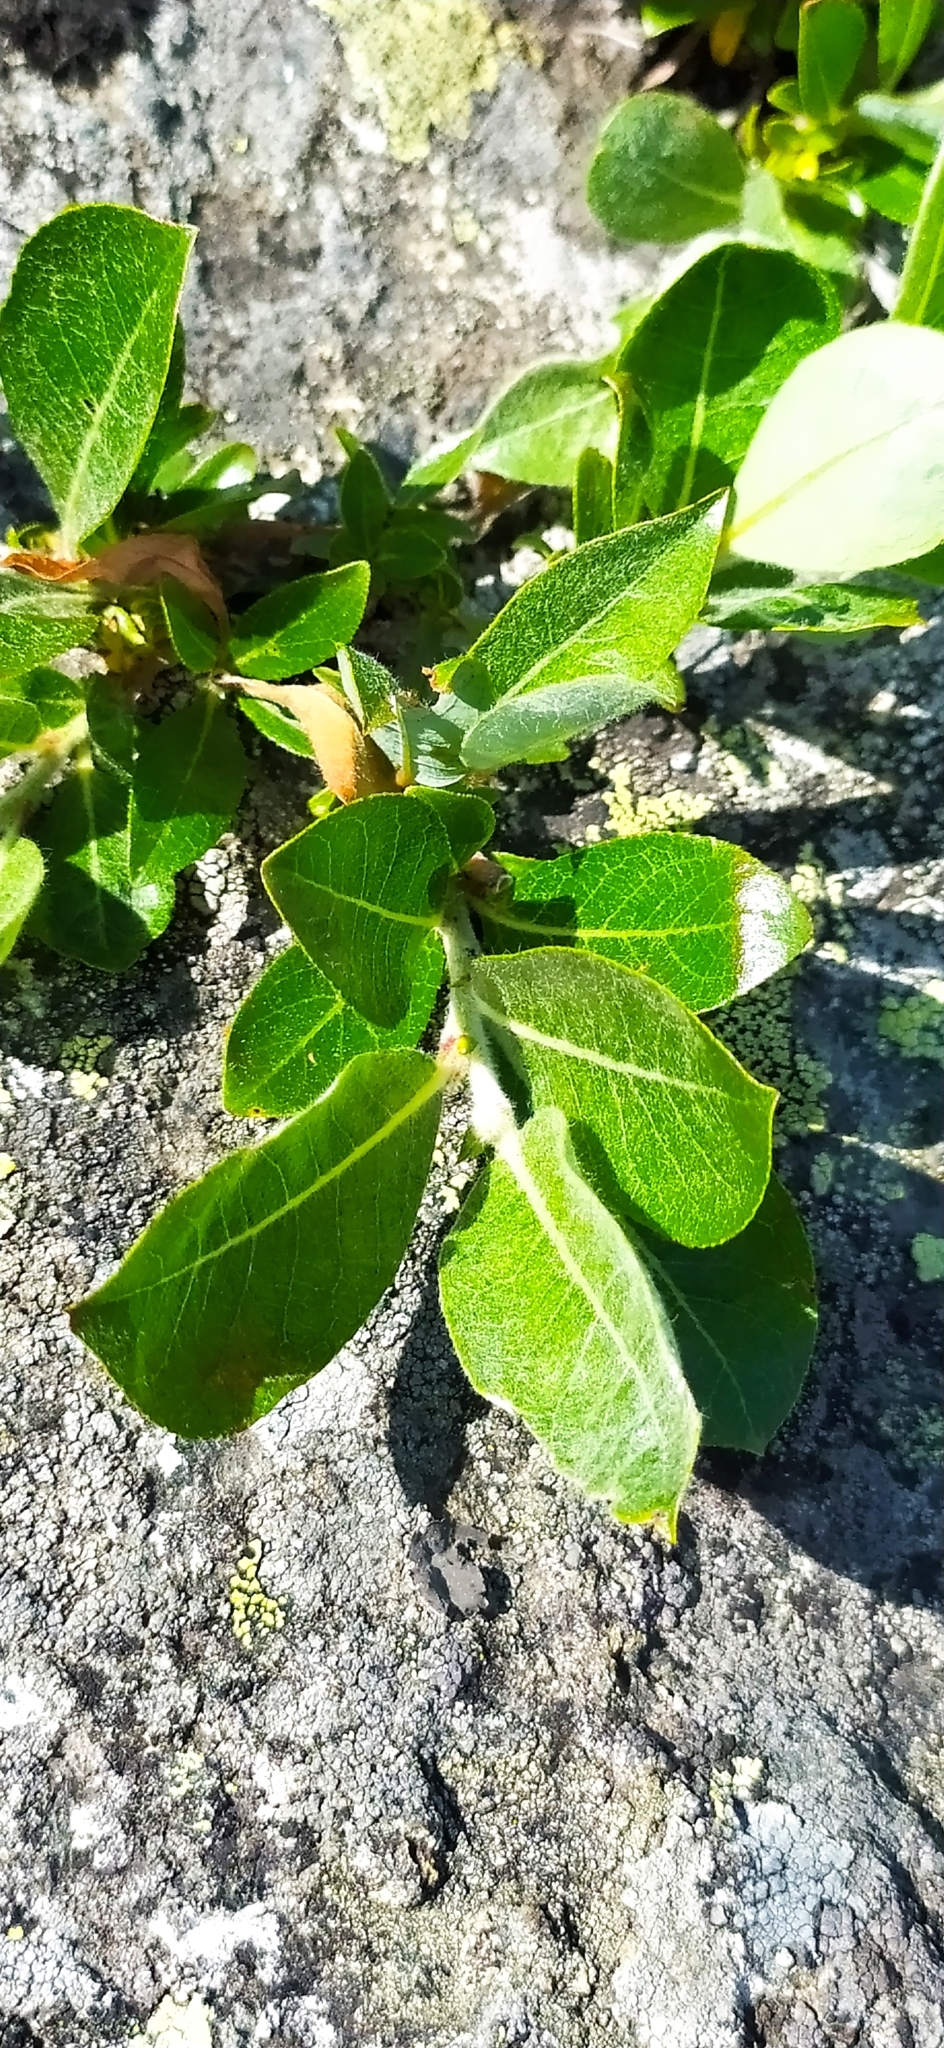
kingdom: Plantae
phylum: Tracheophyta
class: Magnoliopsida
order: Malpighiales
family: Salicaceae
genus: Salix
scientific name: Salix arctica
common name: Arctic willow
